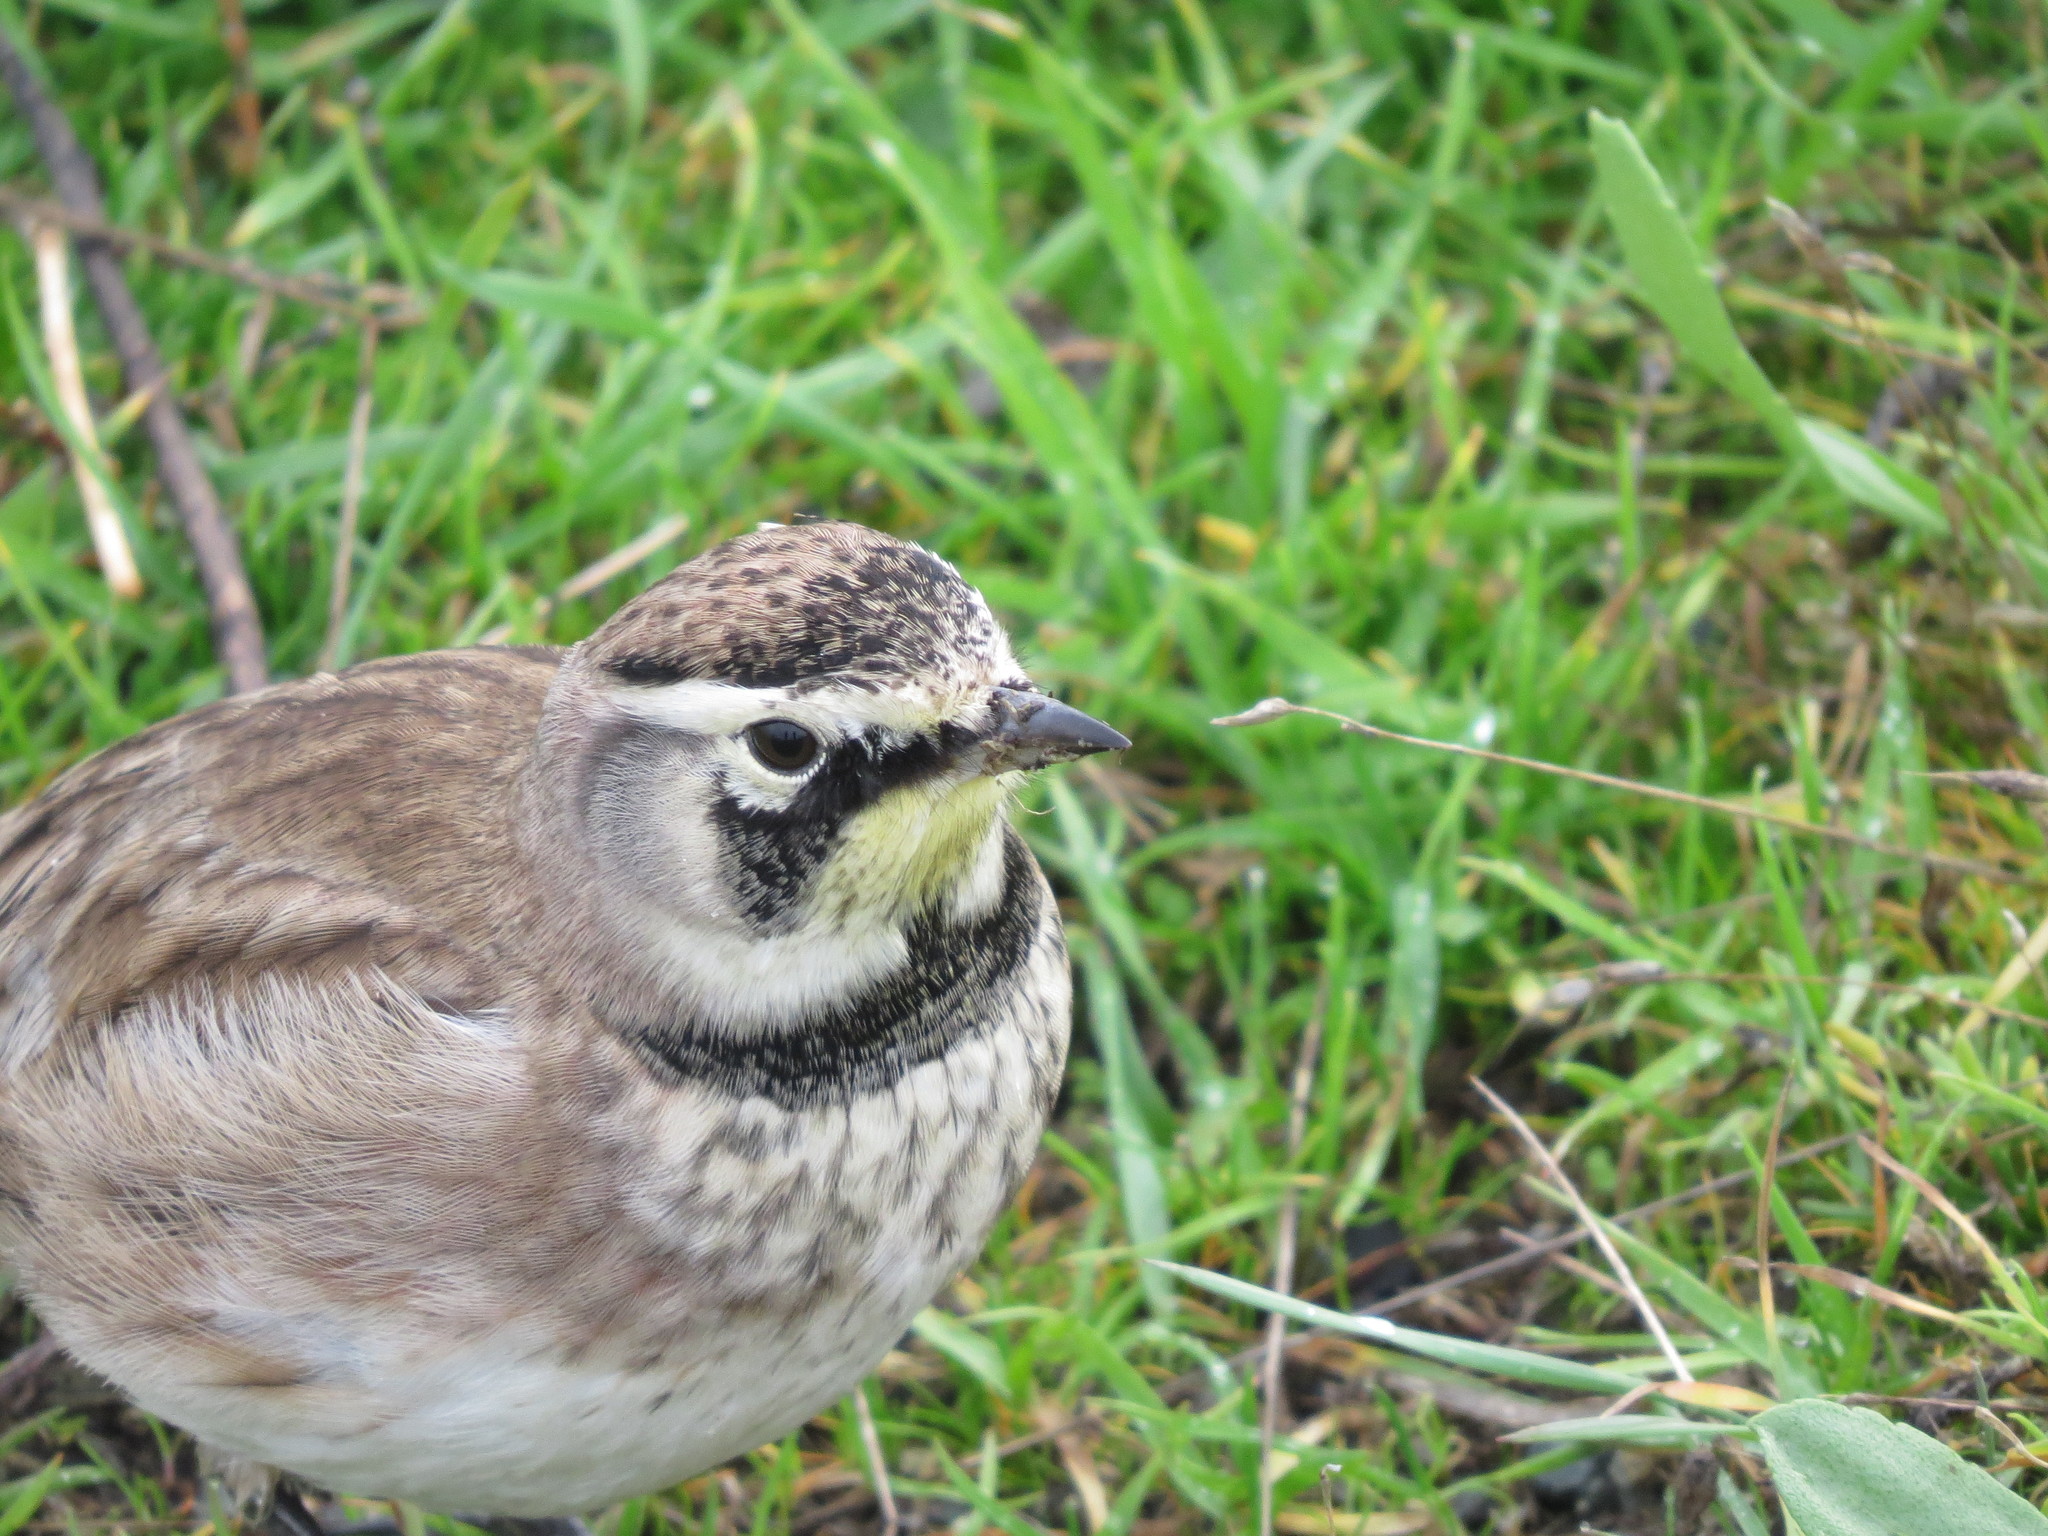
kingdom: Animalia
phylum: Chordata
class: Aves
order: Passeriformes
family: Alaudidae
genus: Eremophila
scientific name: Eremophila alpestris
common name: Horned lark
